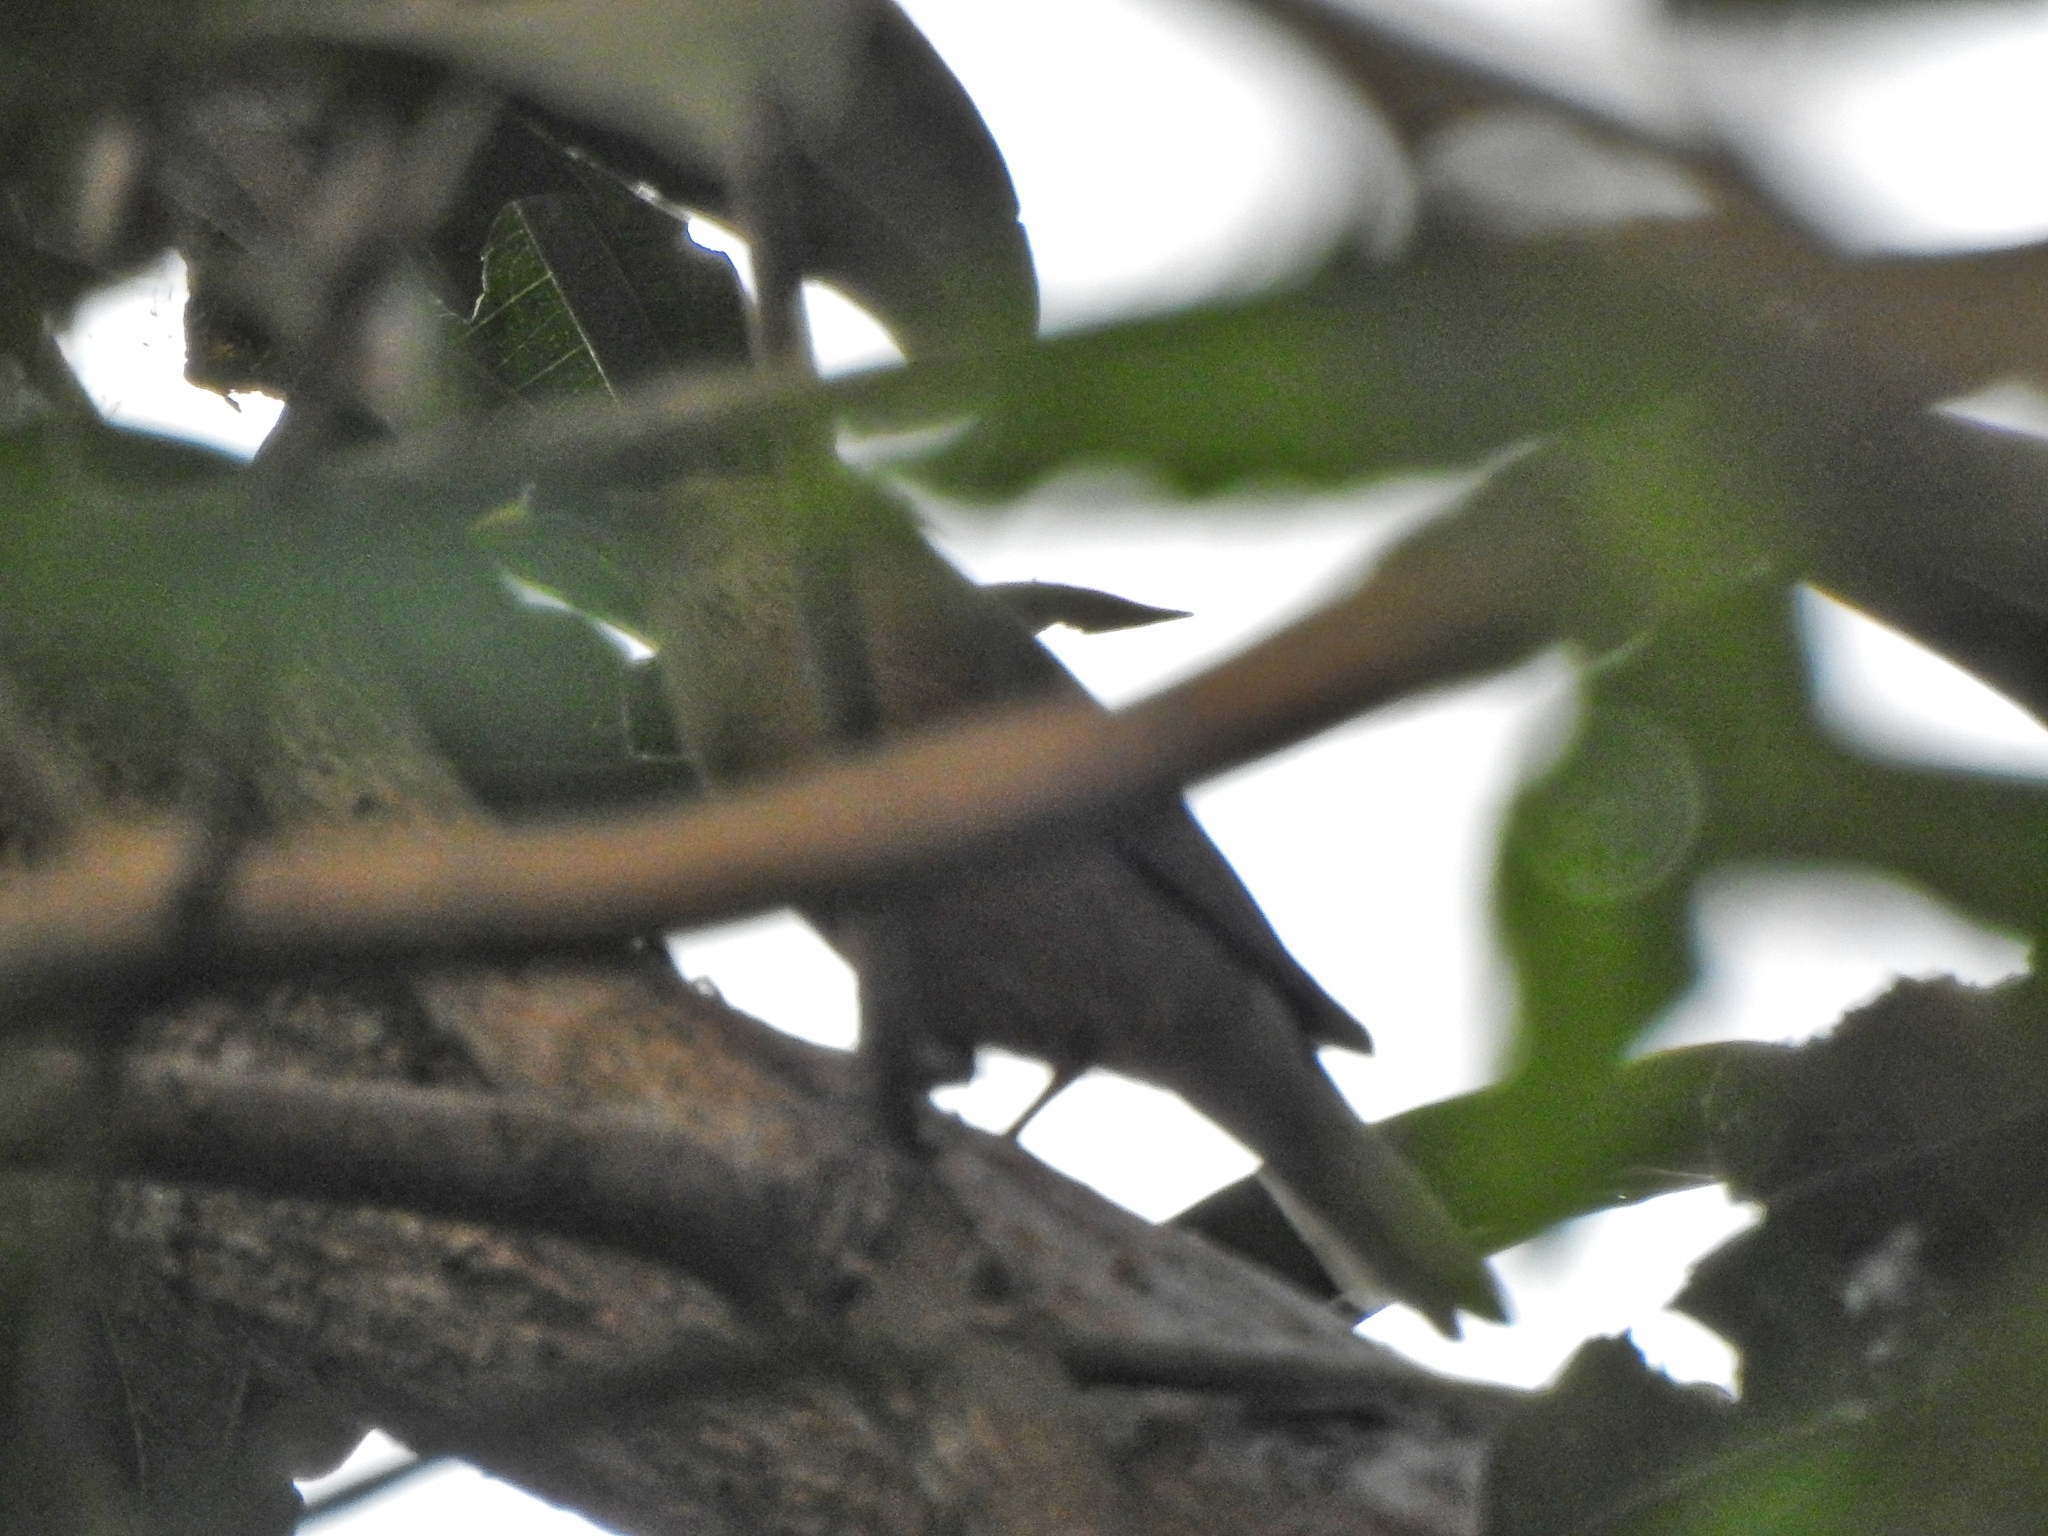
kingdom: Animalia
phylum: Chordata
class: Aves
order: Passeriformes
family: Sturnidae
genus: Sturnia
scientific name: Sturnia pagodarum
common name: Brahminy starling
